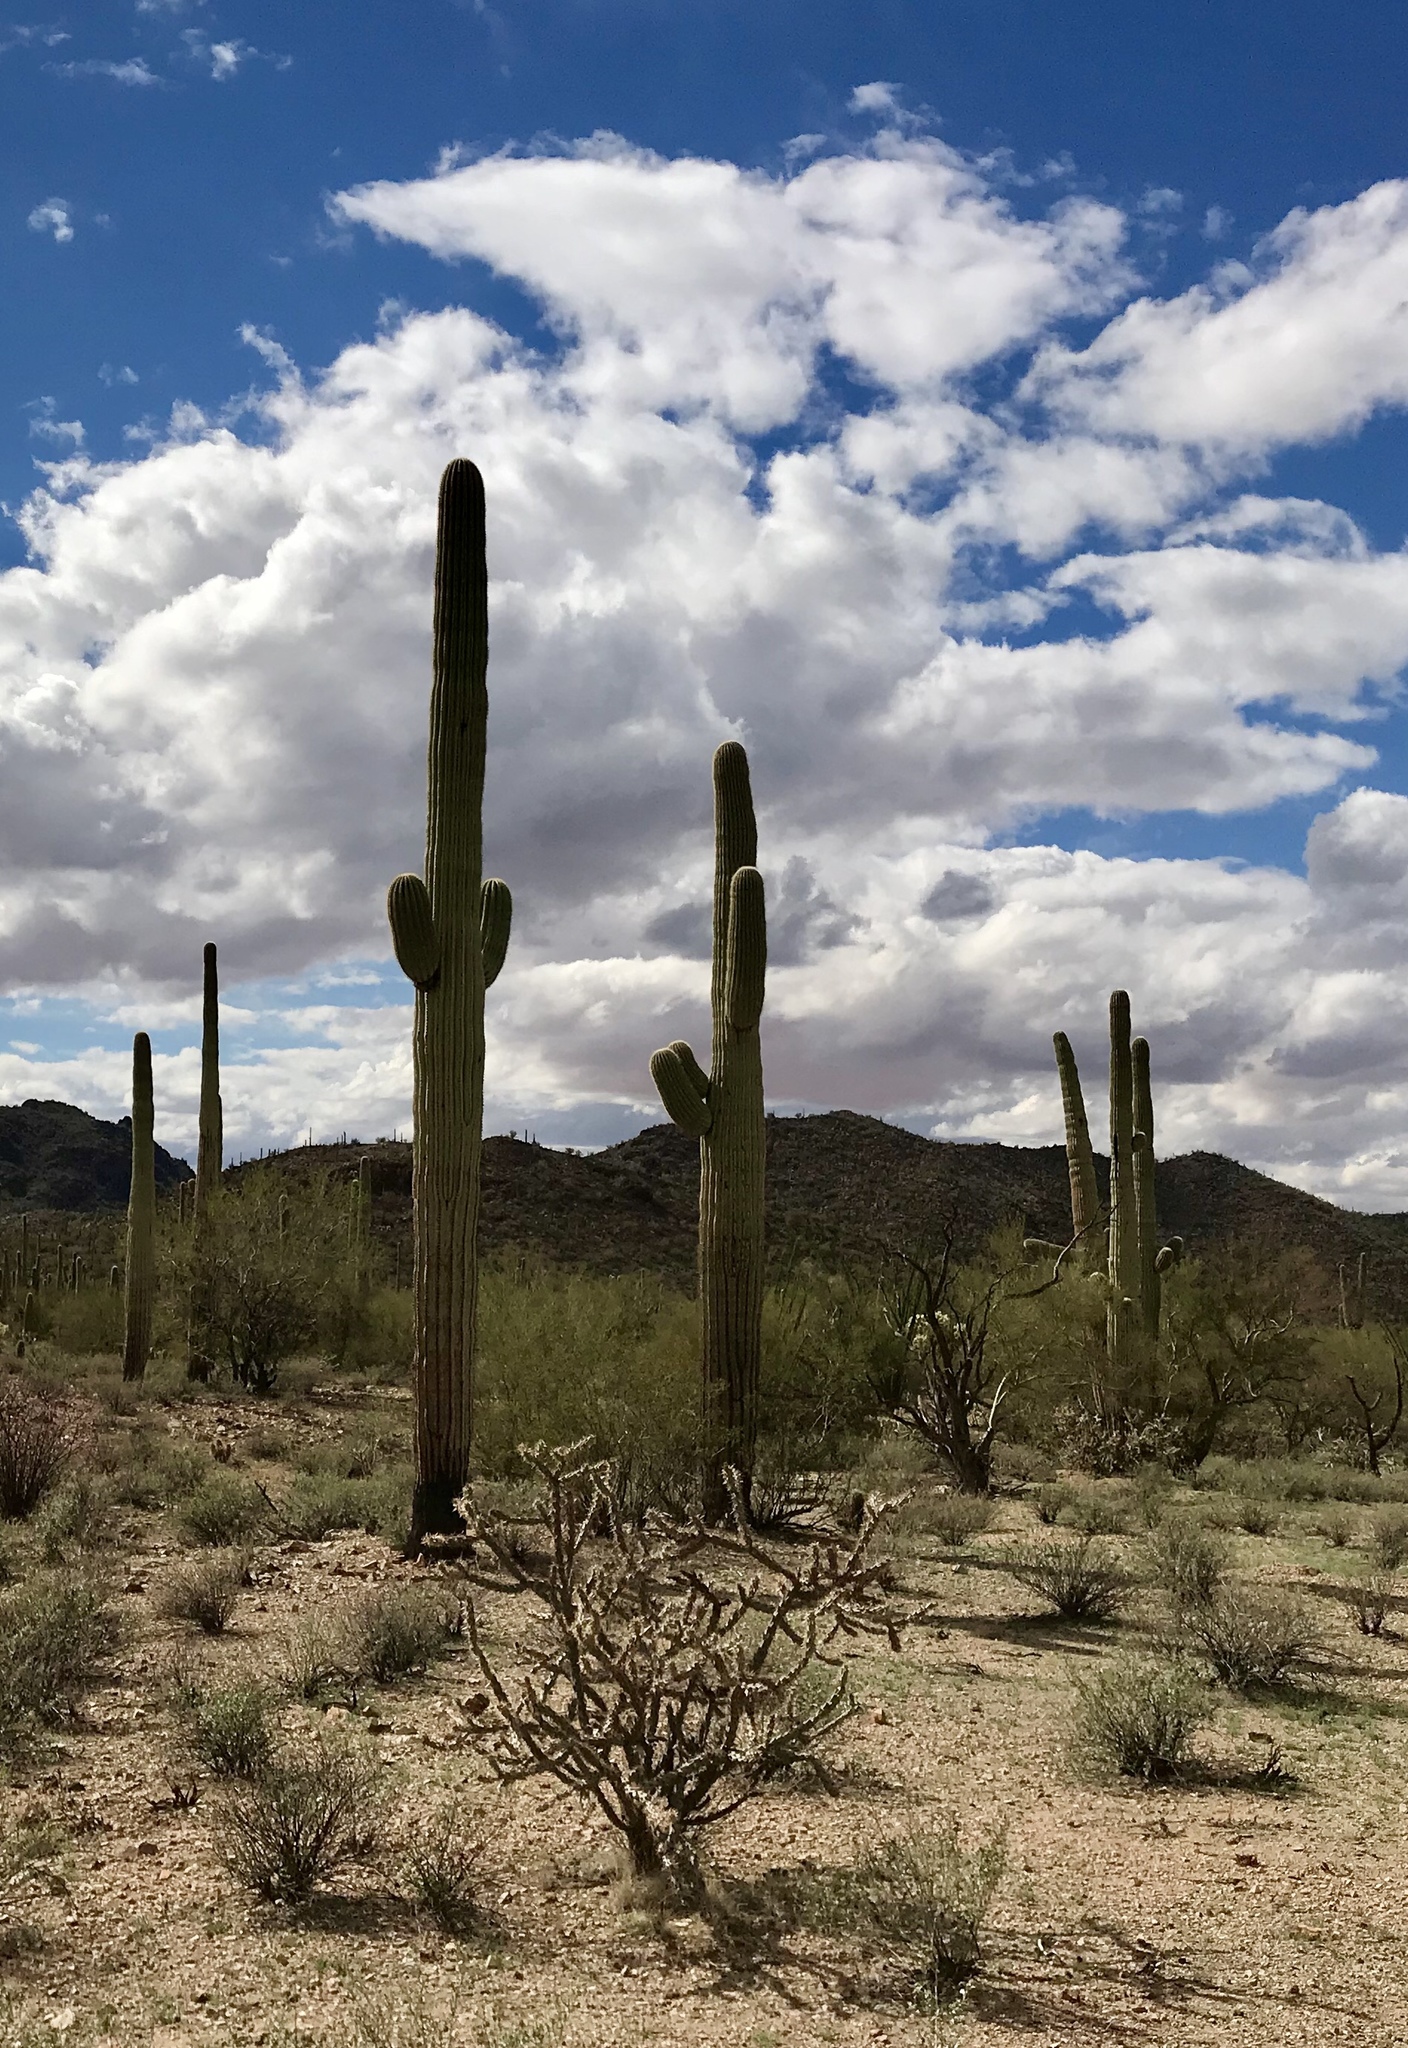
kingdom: Plantae
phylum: Tracheophyta
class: Magnoliopsida
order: Caryophyllales
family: Cactaceae
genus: Carnegiea
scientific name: Carnegiea gigantea
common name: Saguaro
